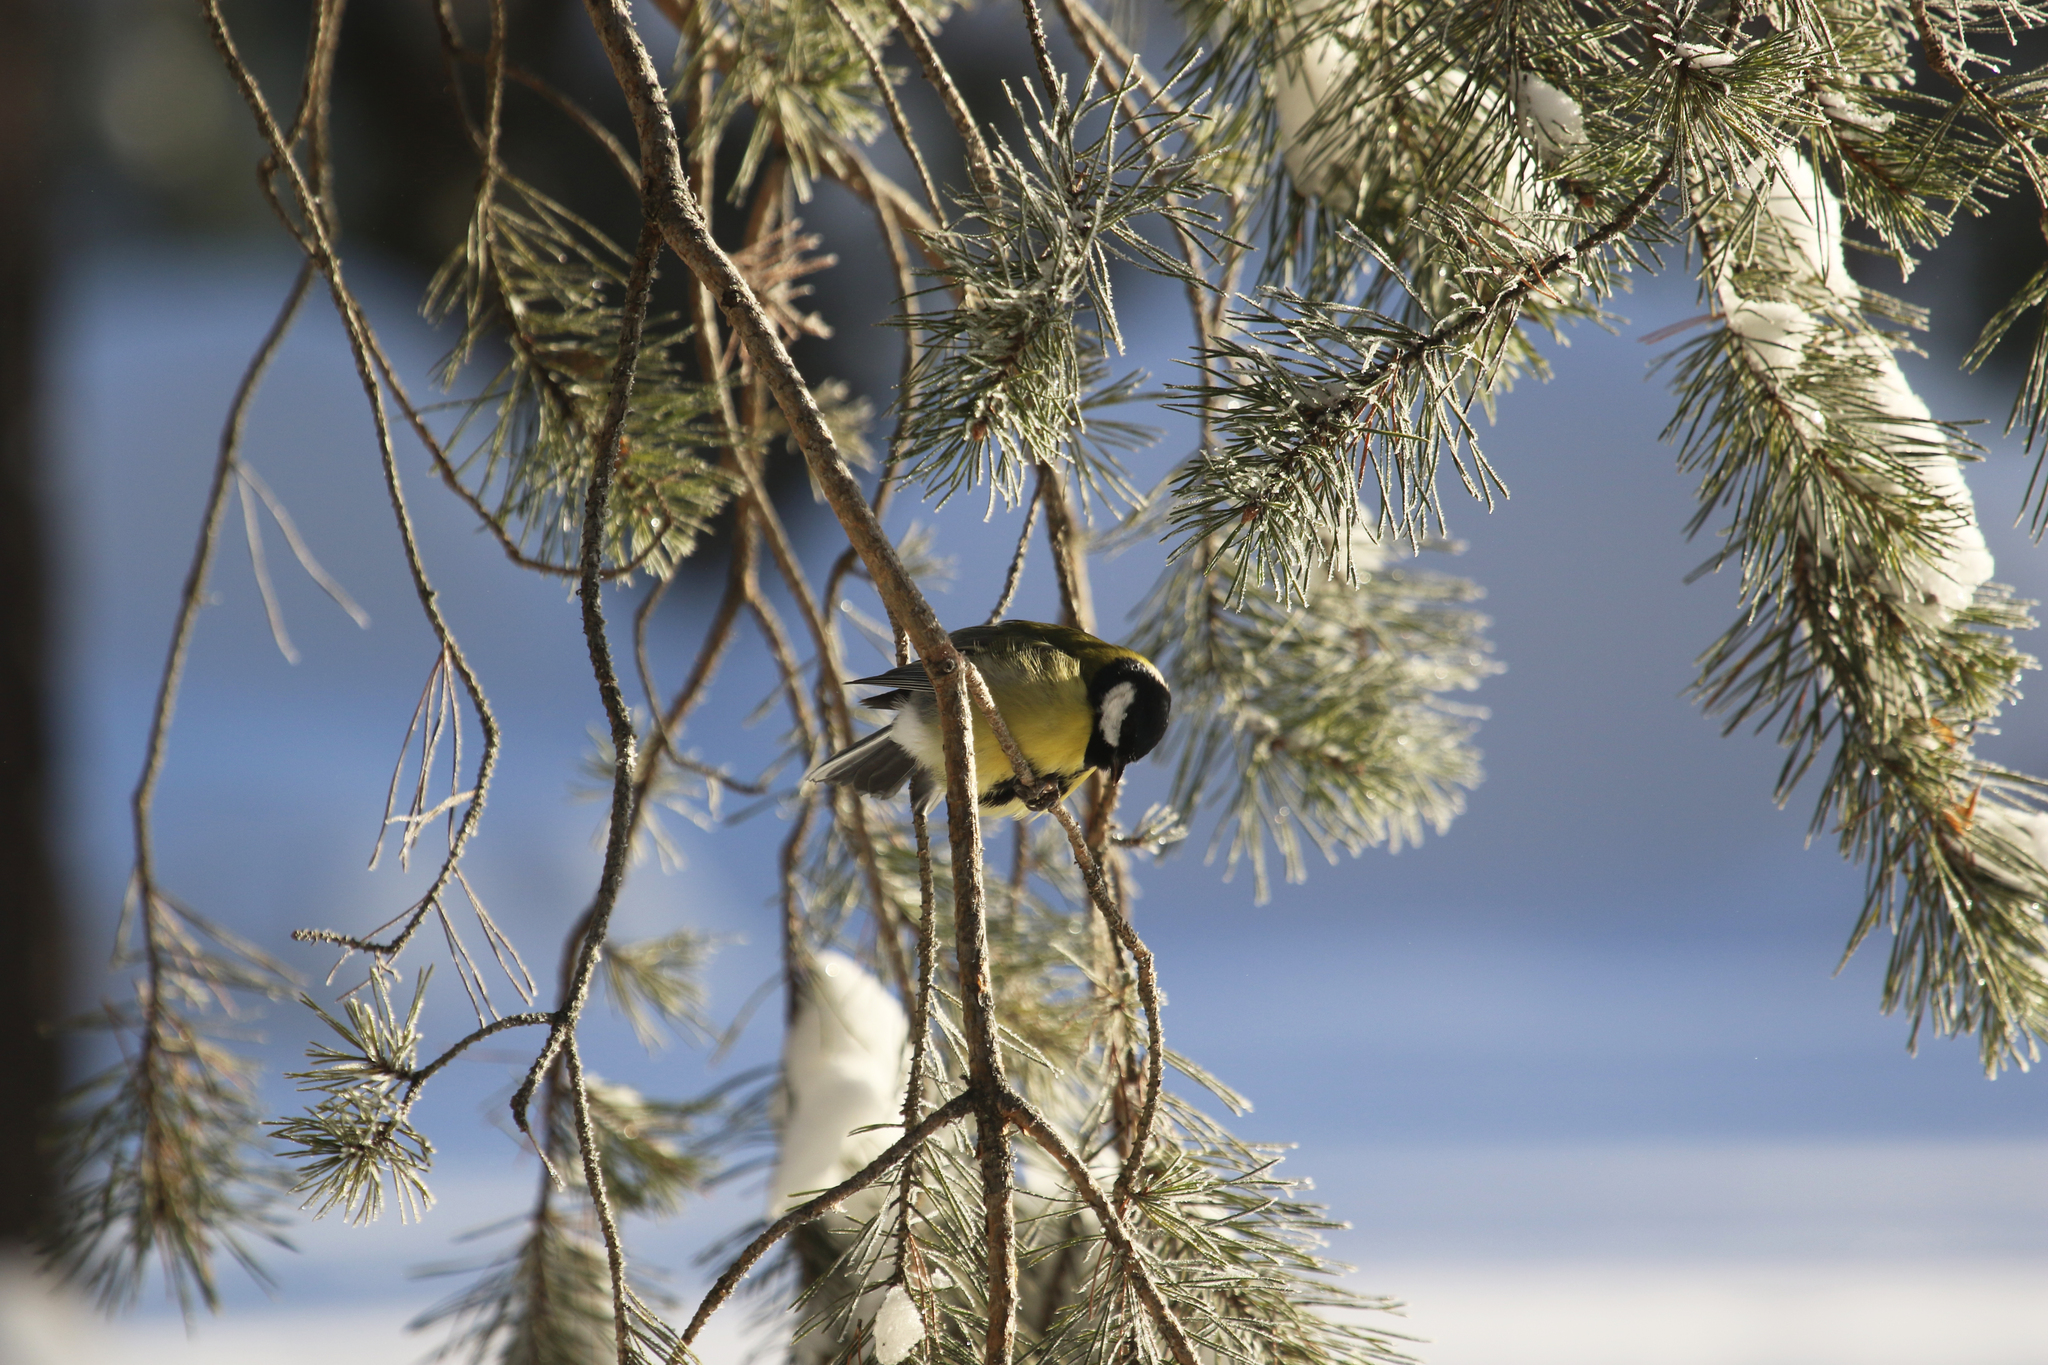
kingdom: Animalia
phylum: Chordata
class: Aves
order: Passeriformes
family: Paridae
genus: Parus
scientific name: Parus major
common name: Great tit
